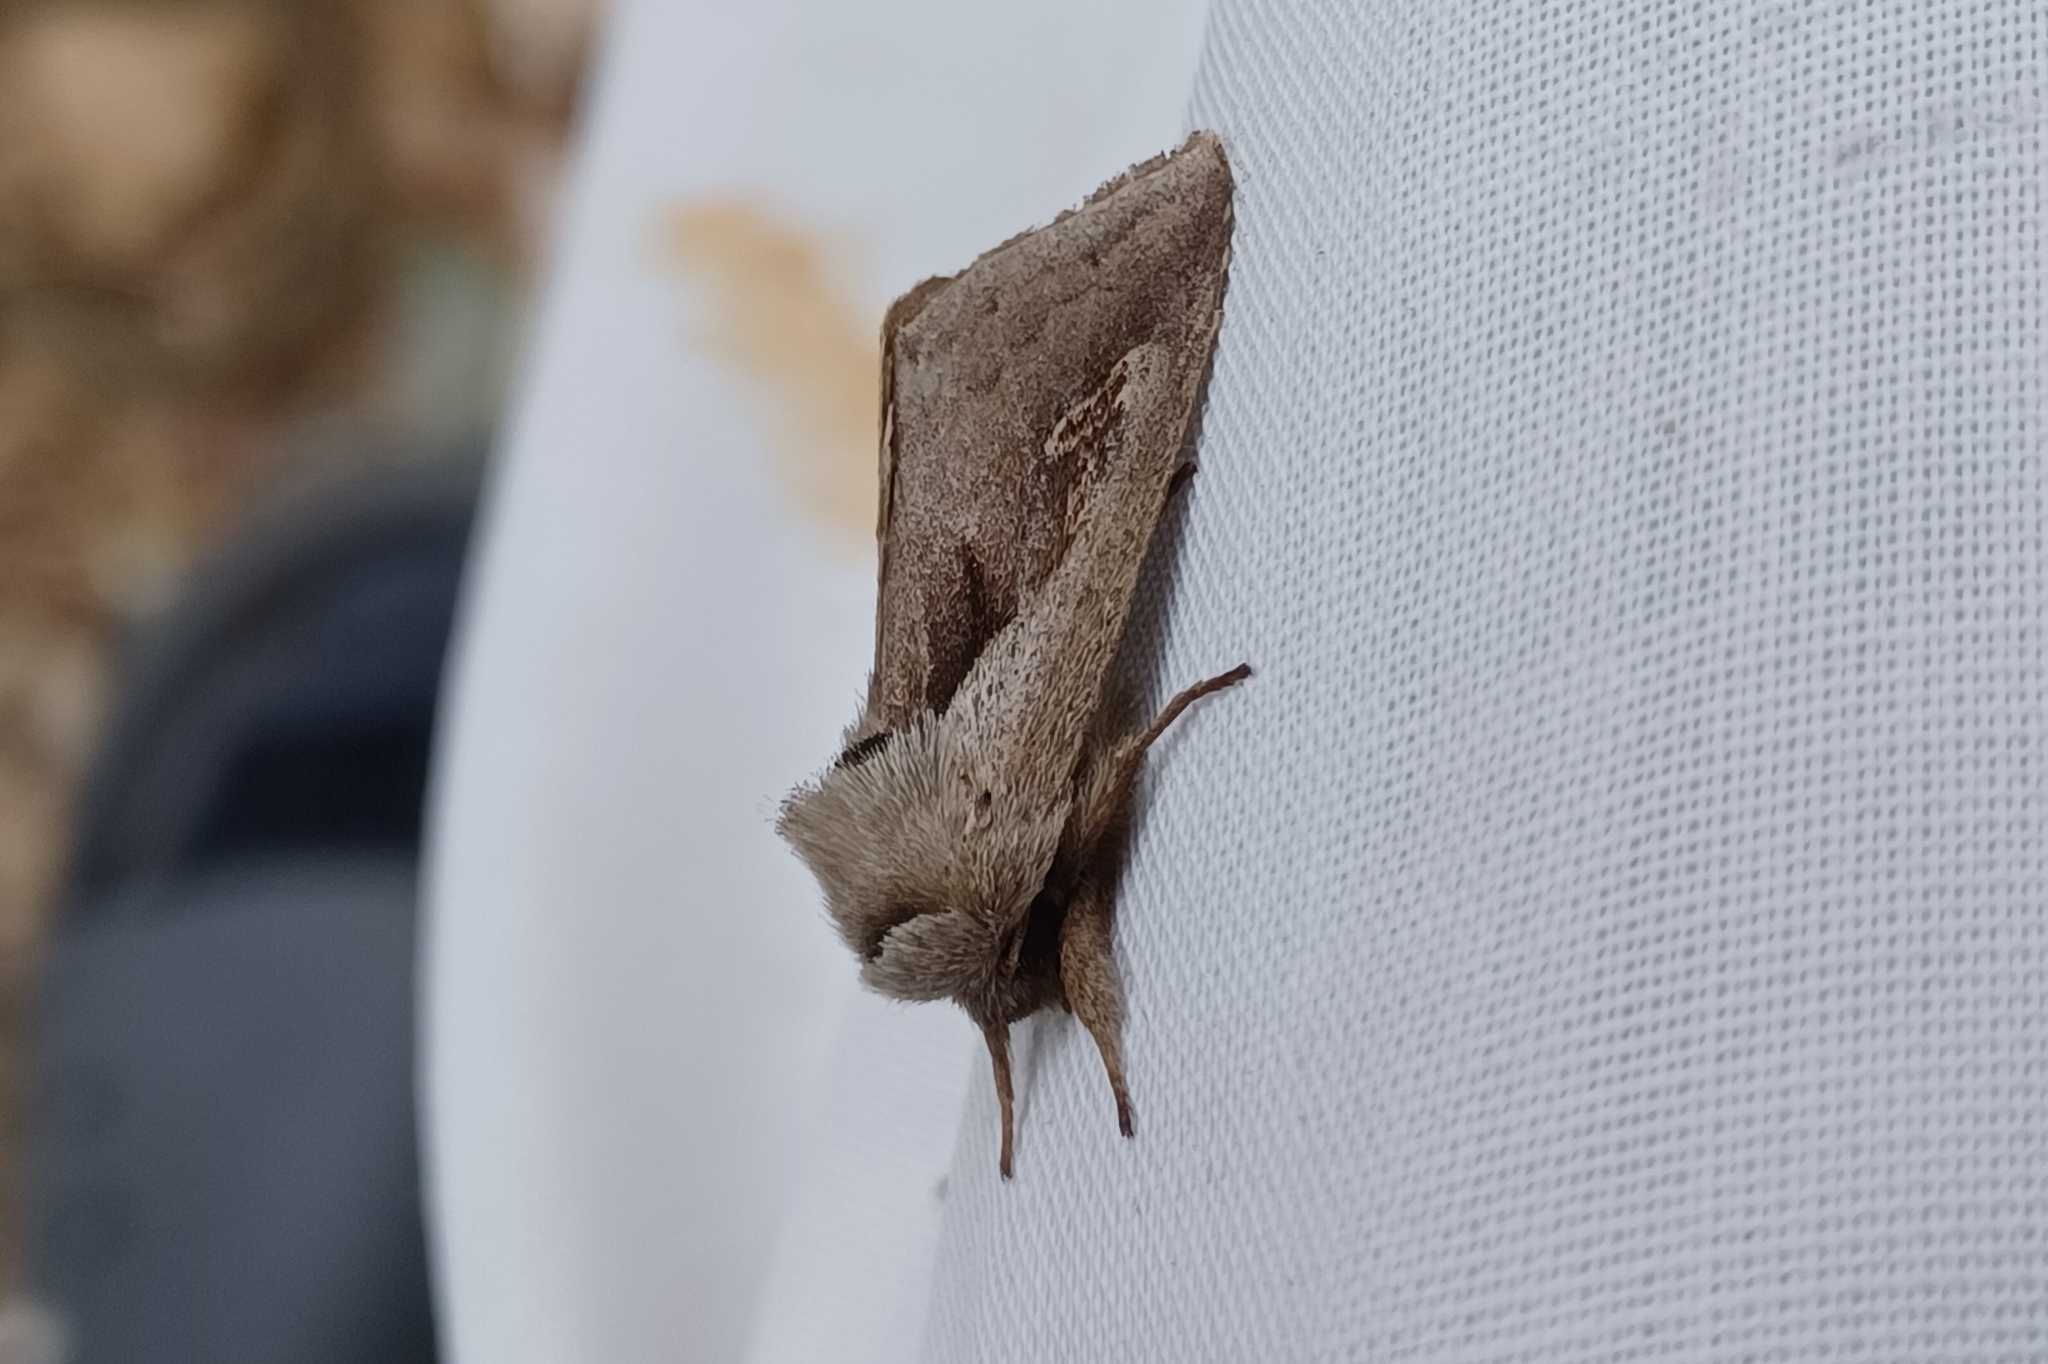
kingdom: Animalia
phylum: Arthropoda
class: Insecta
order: Lepidoptera
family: Noctuidae
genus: Bellura
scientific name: Bellura obliqua
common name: Cattail borer moth
